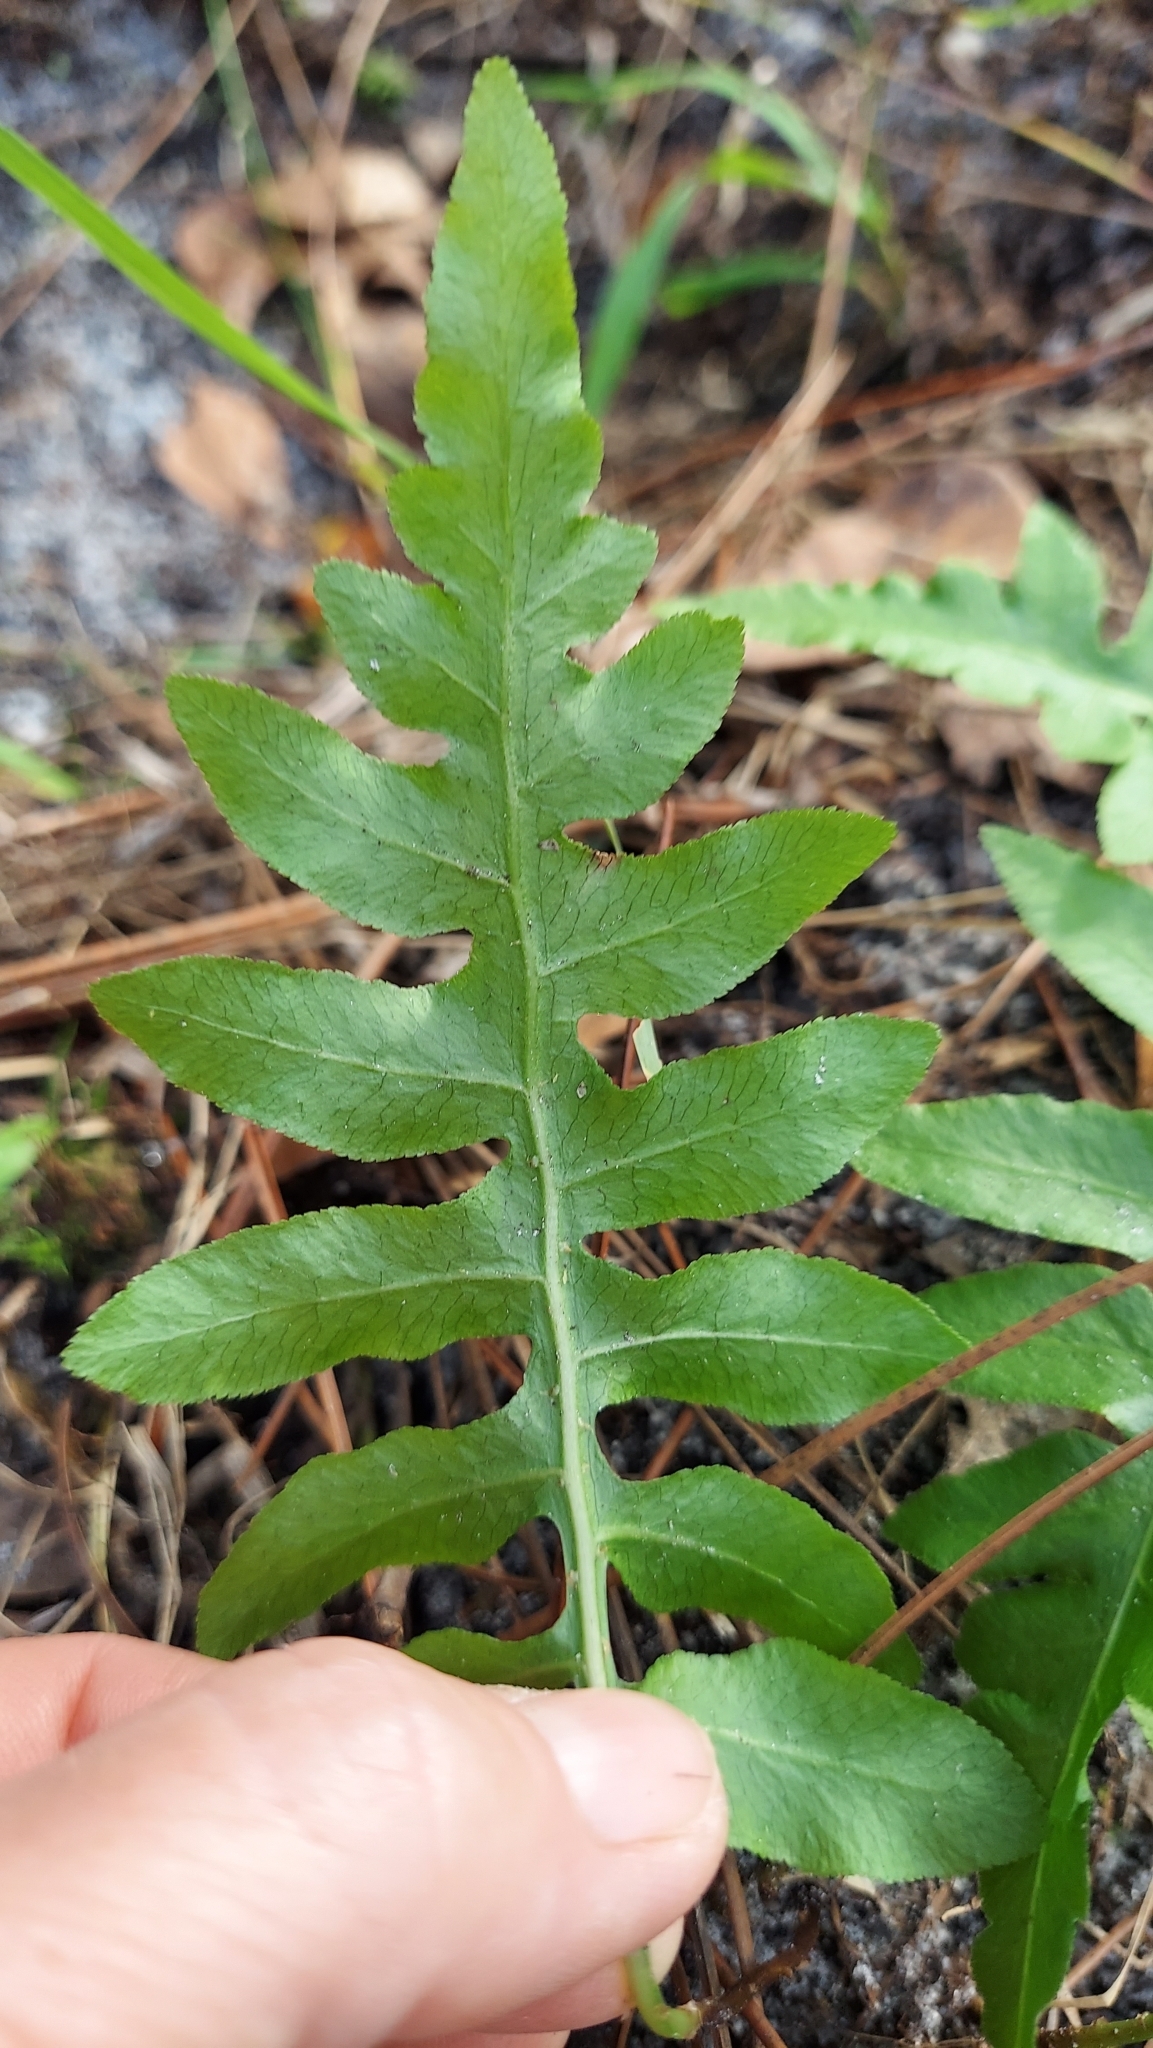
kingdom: Plantae
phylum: Tracheophyta
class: Polypodiopsida
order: Polypodiales
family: Blechnaceae
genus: Lorinseria
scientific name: Lorinseria areolata
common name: Dwarf chain fern
